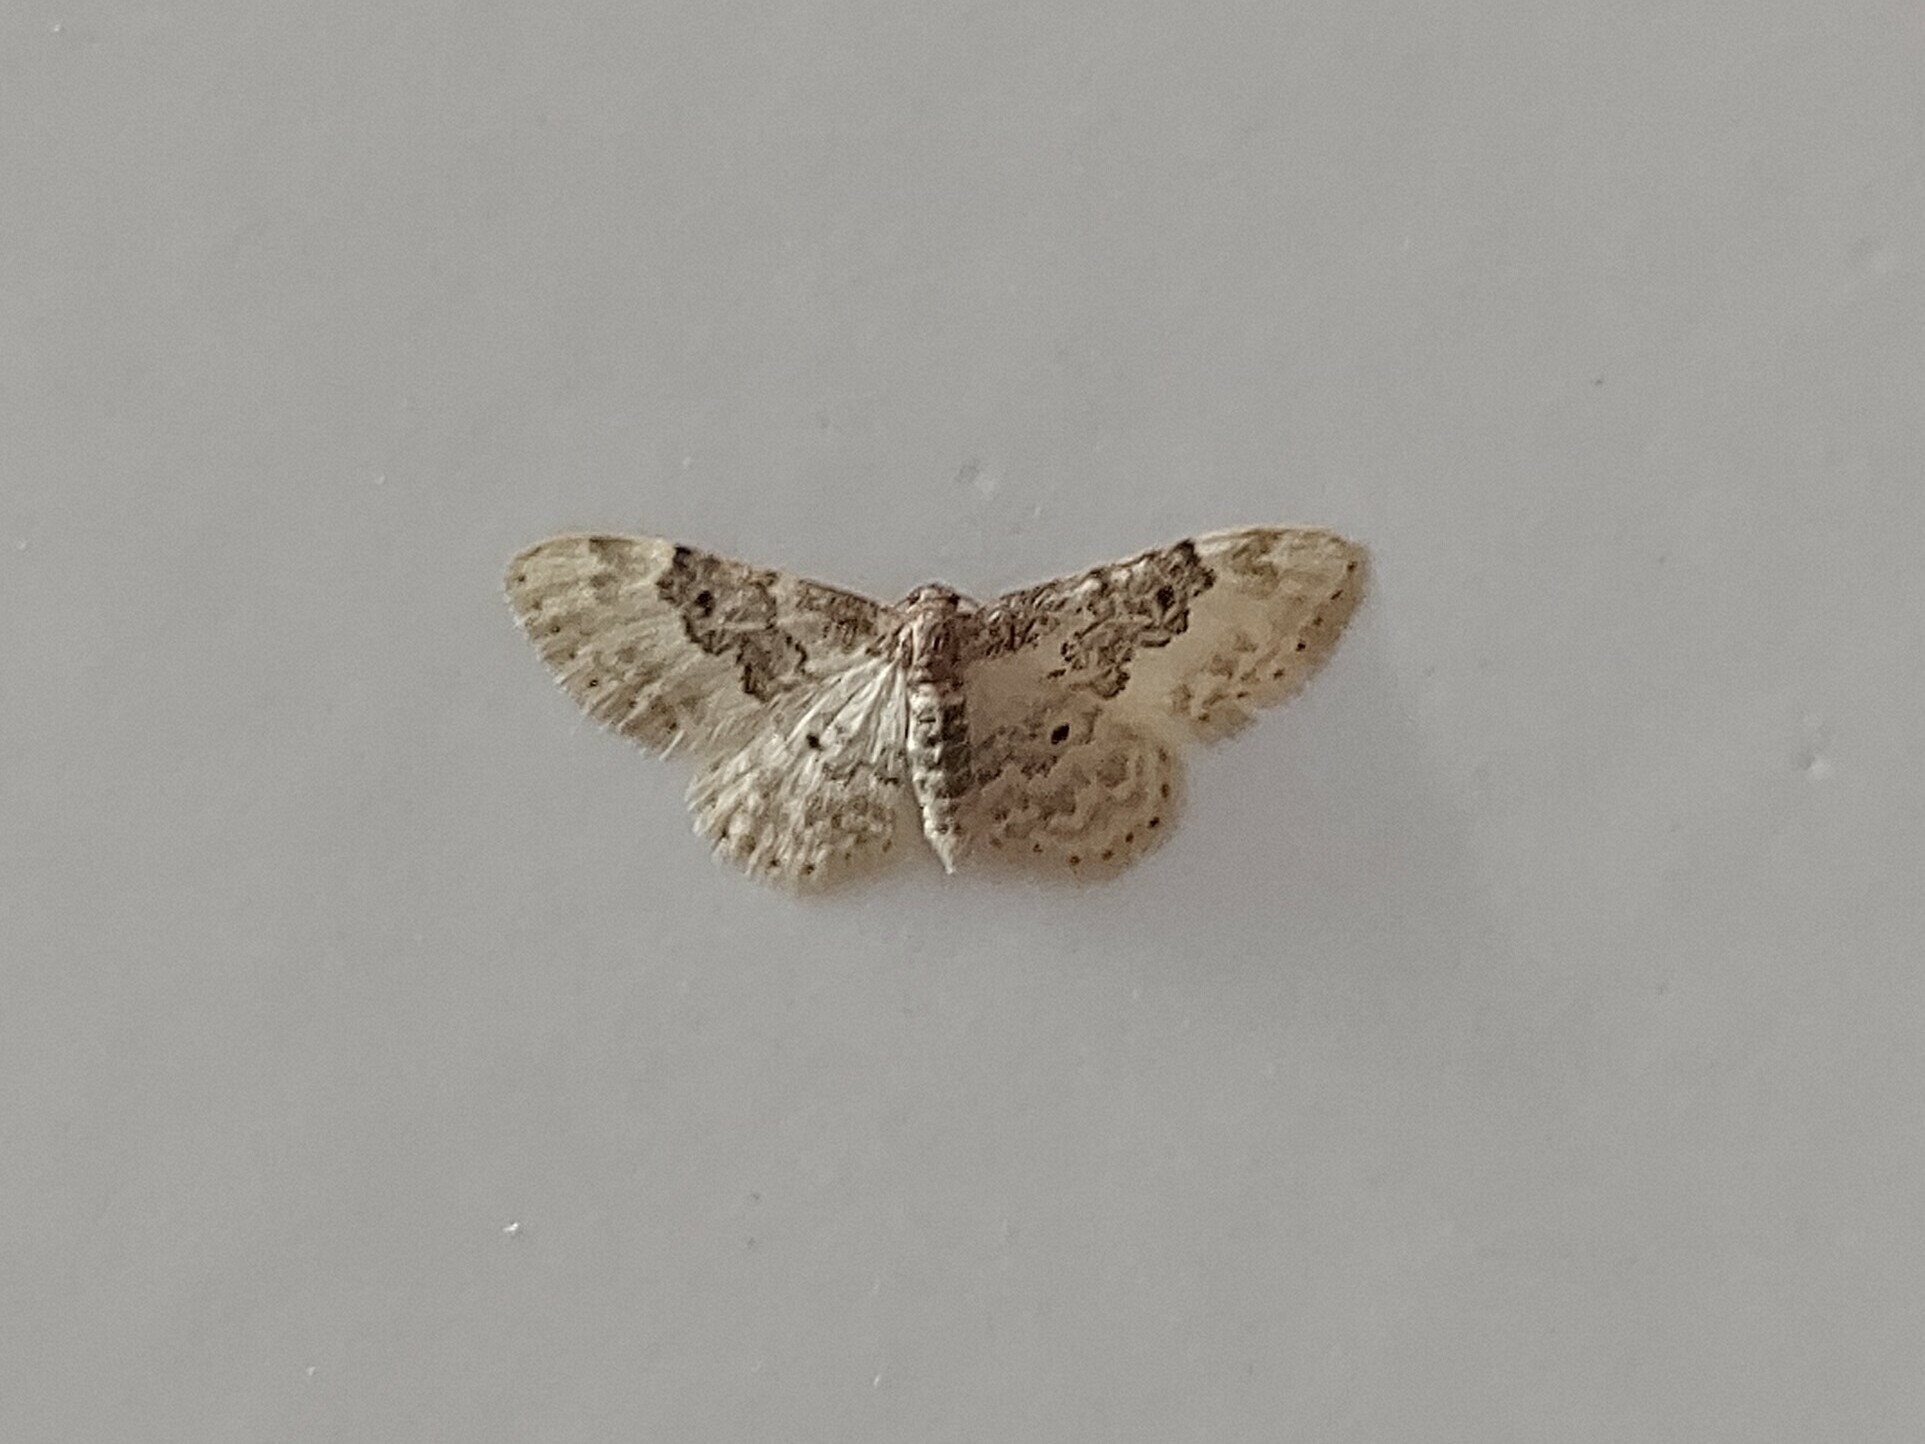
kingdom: Animalia
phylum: Arthropoda
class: Insecta
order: Lepidoptera
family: Geometridae
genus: Idaea
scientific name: Idaea rusticata
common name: Least carpet
